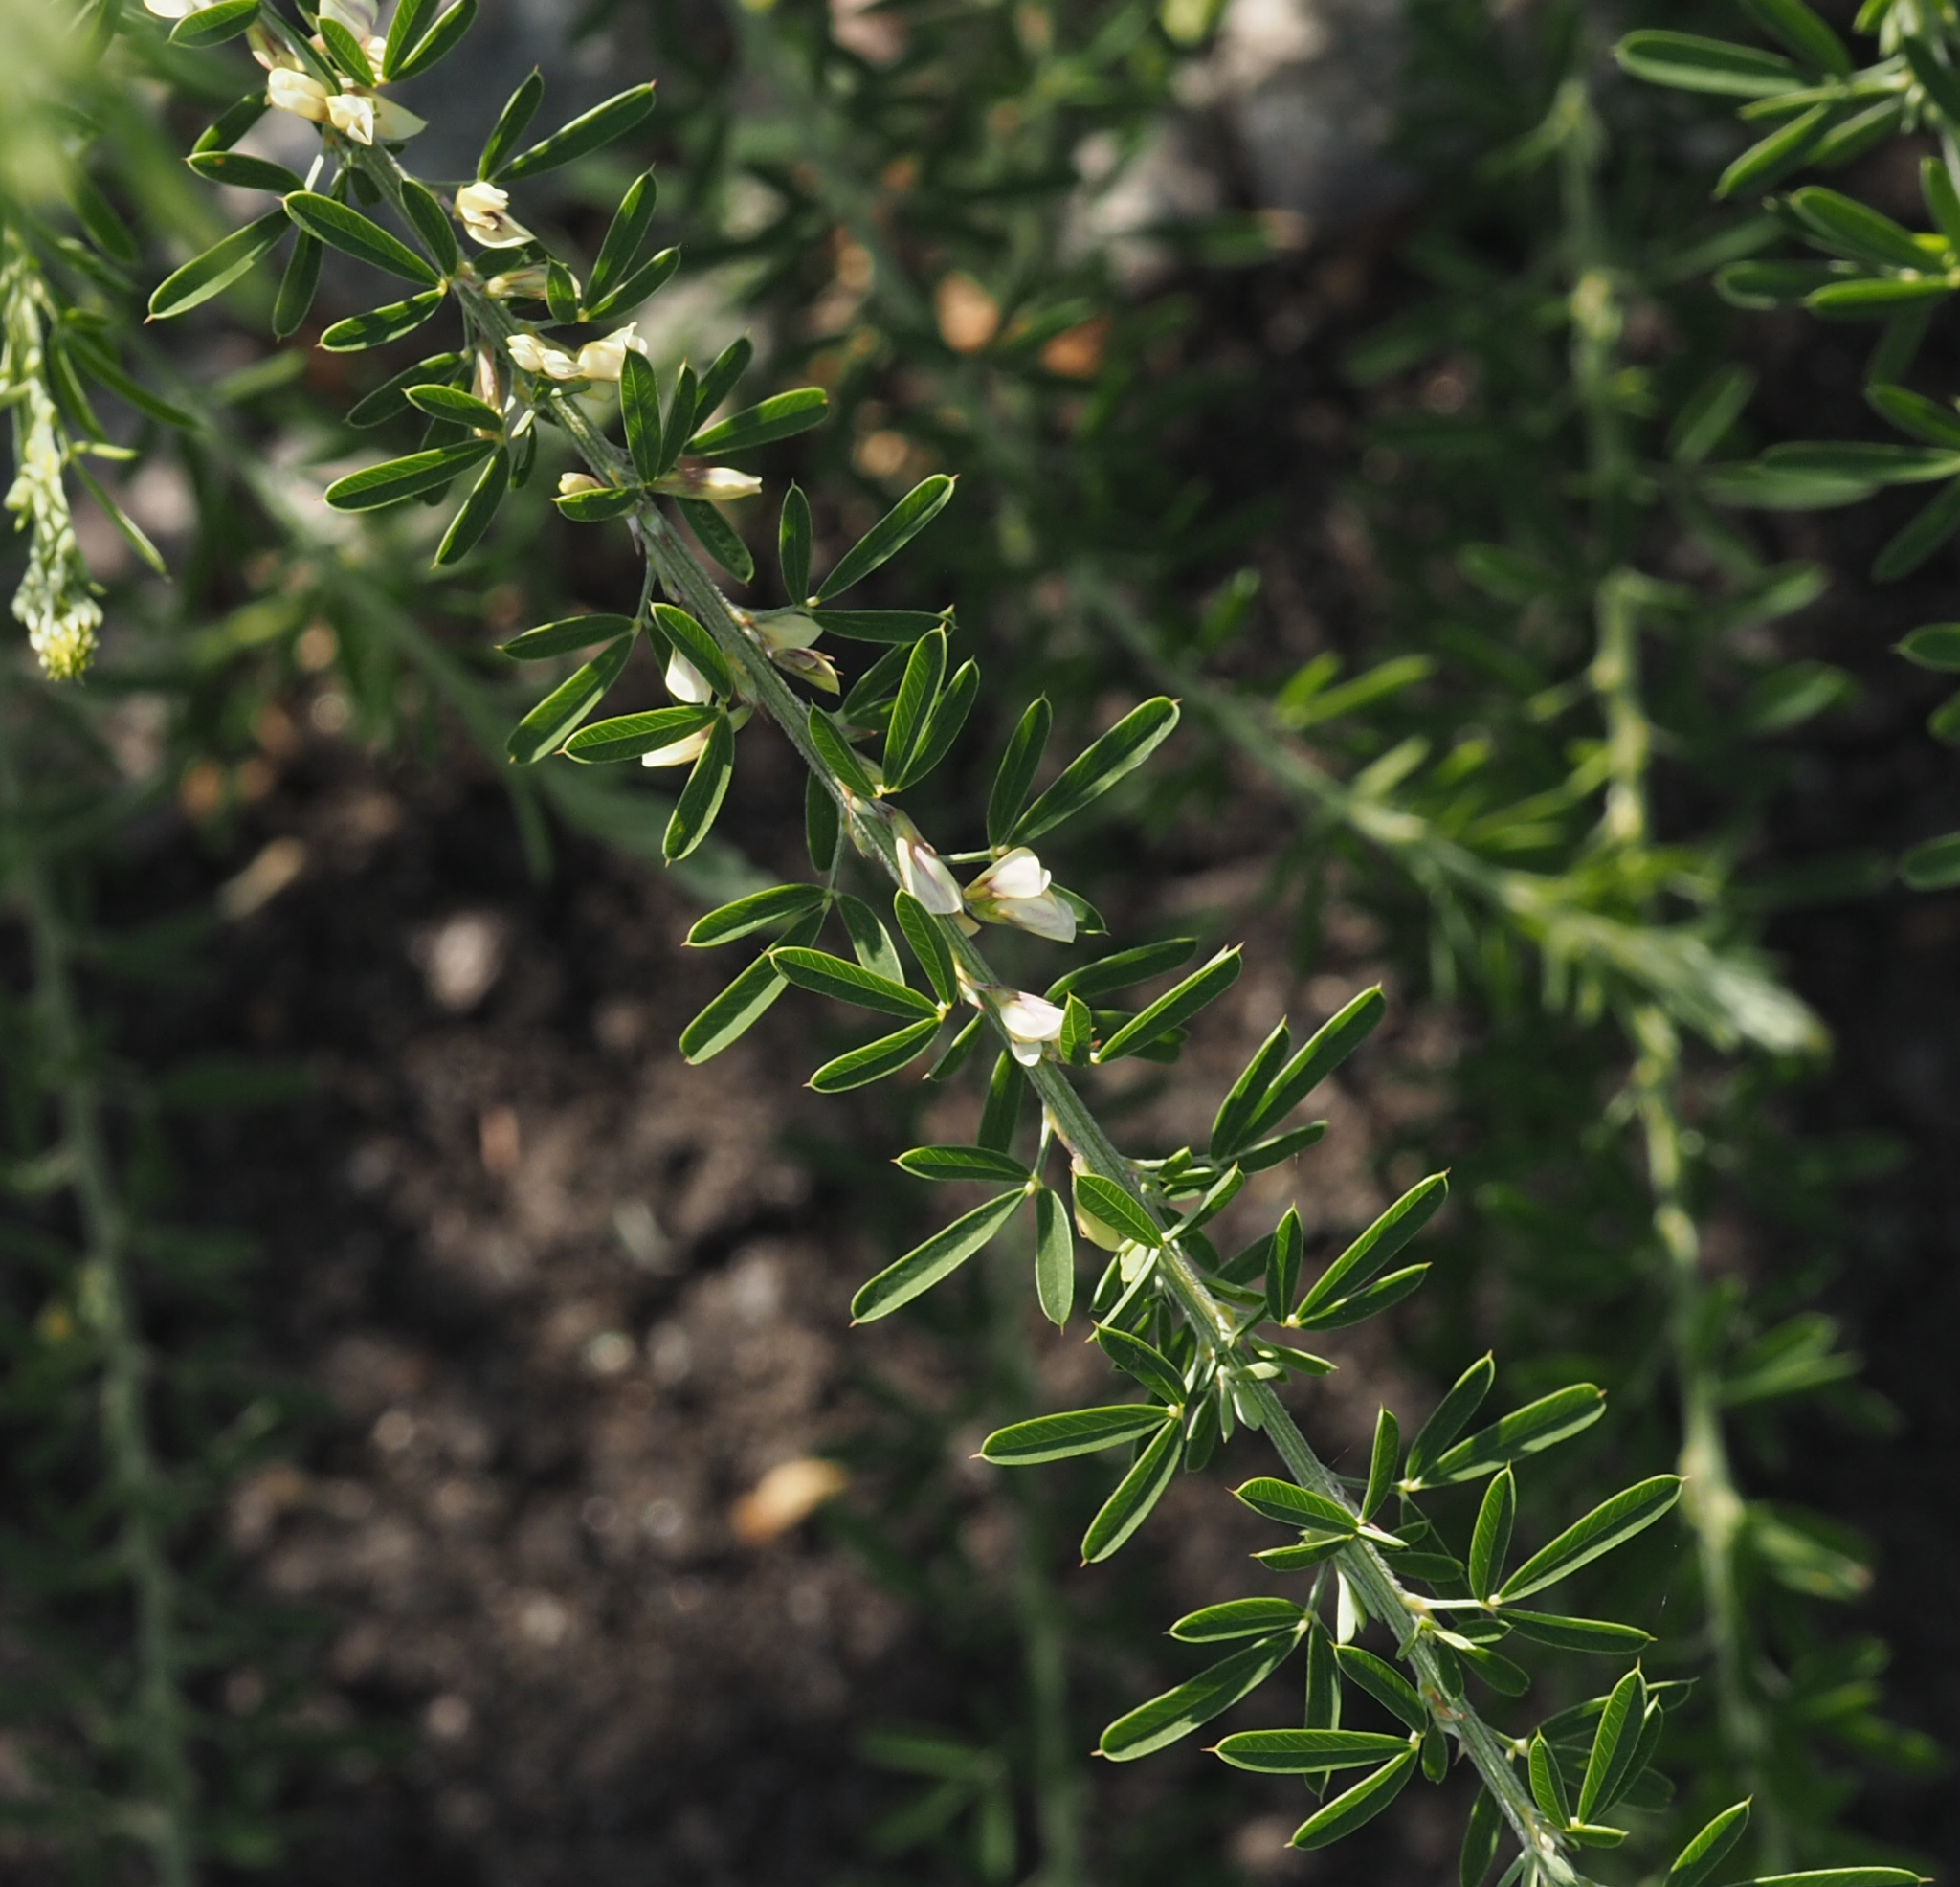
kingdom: Plantae
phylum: Tracheophyta
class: Magnoliopsida
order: Fabales
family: Fabaceae
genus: Lespedeza
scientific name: Lespedeza cuneata
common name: Chinese bush-clover
